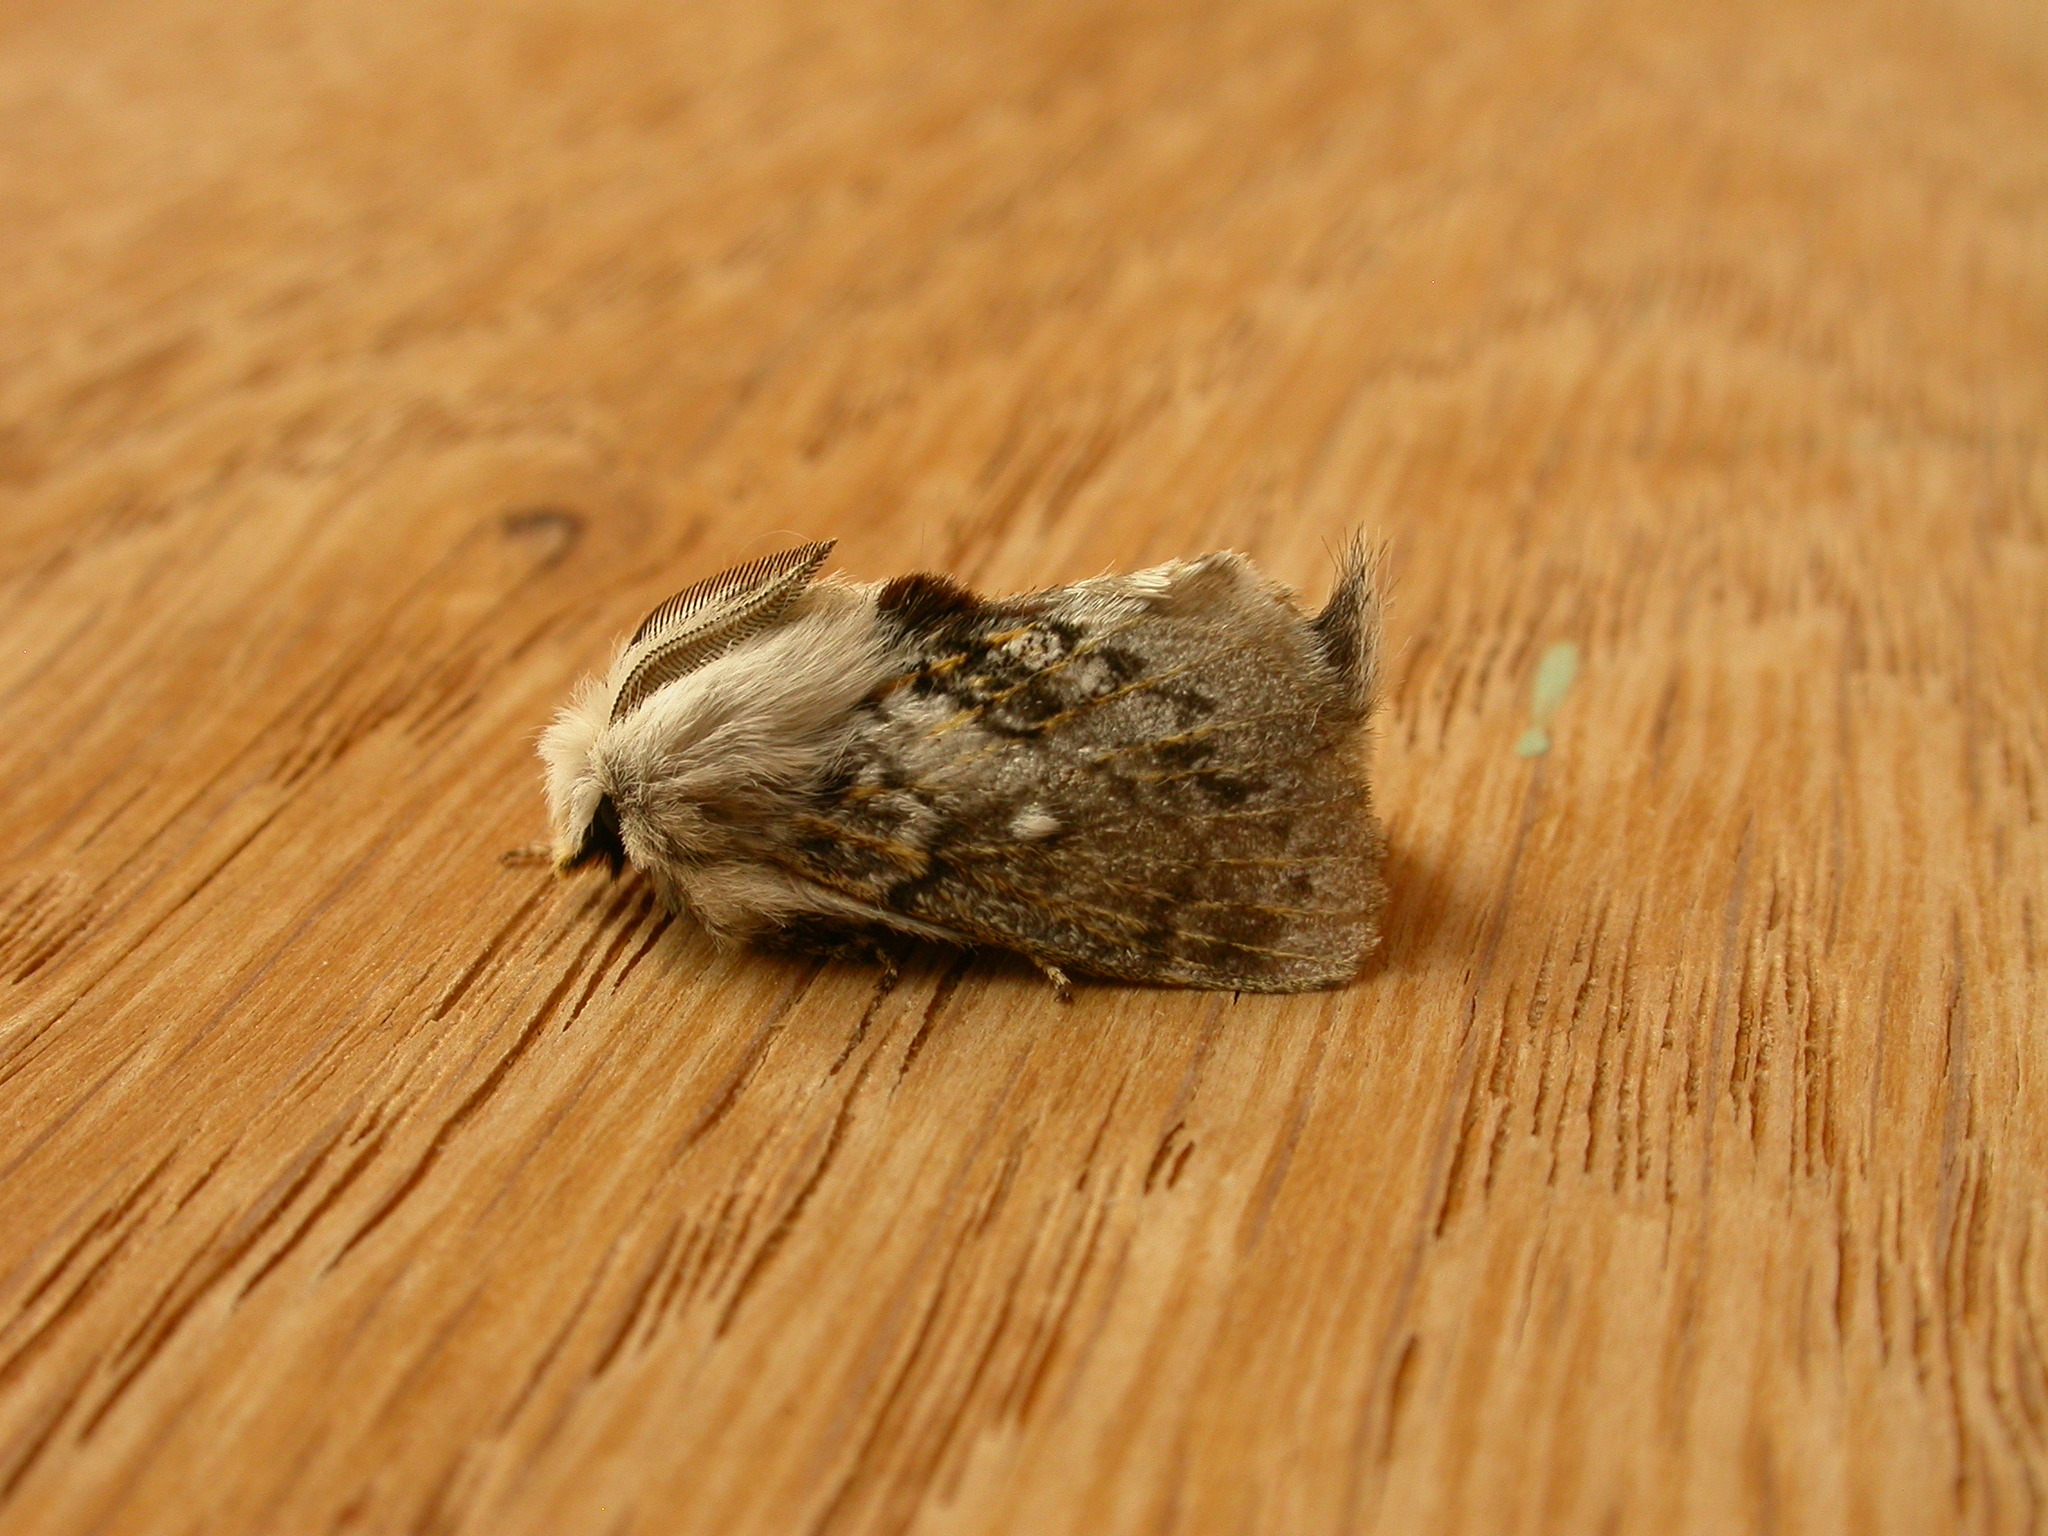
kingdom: Animalia
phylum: Arthropoda
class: Insecta
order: Lepidoptera
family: Lasiocampidae
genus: Porela
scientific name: Porela delineata
